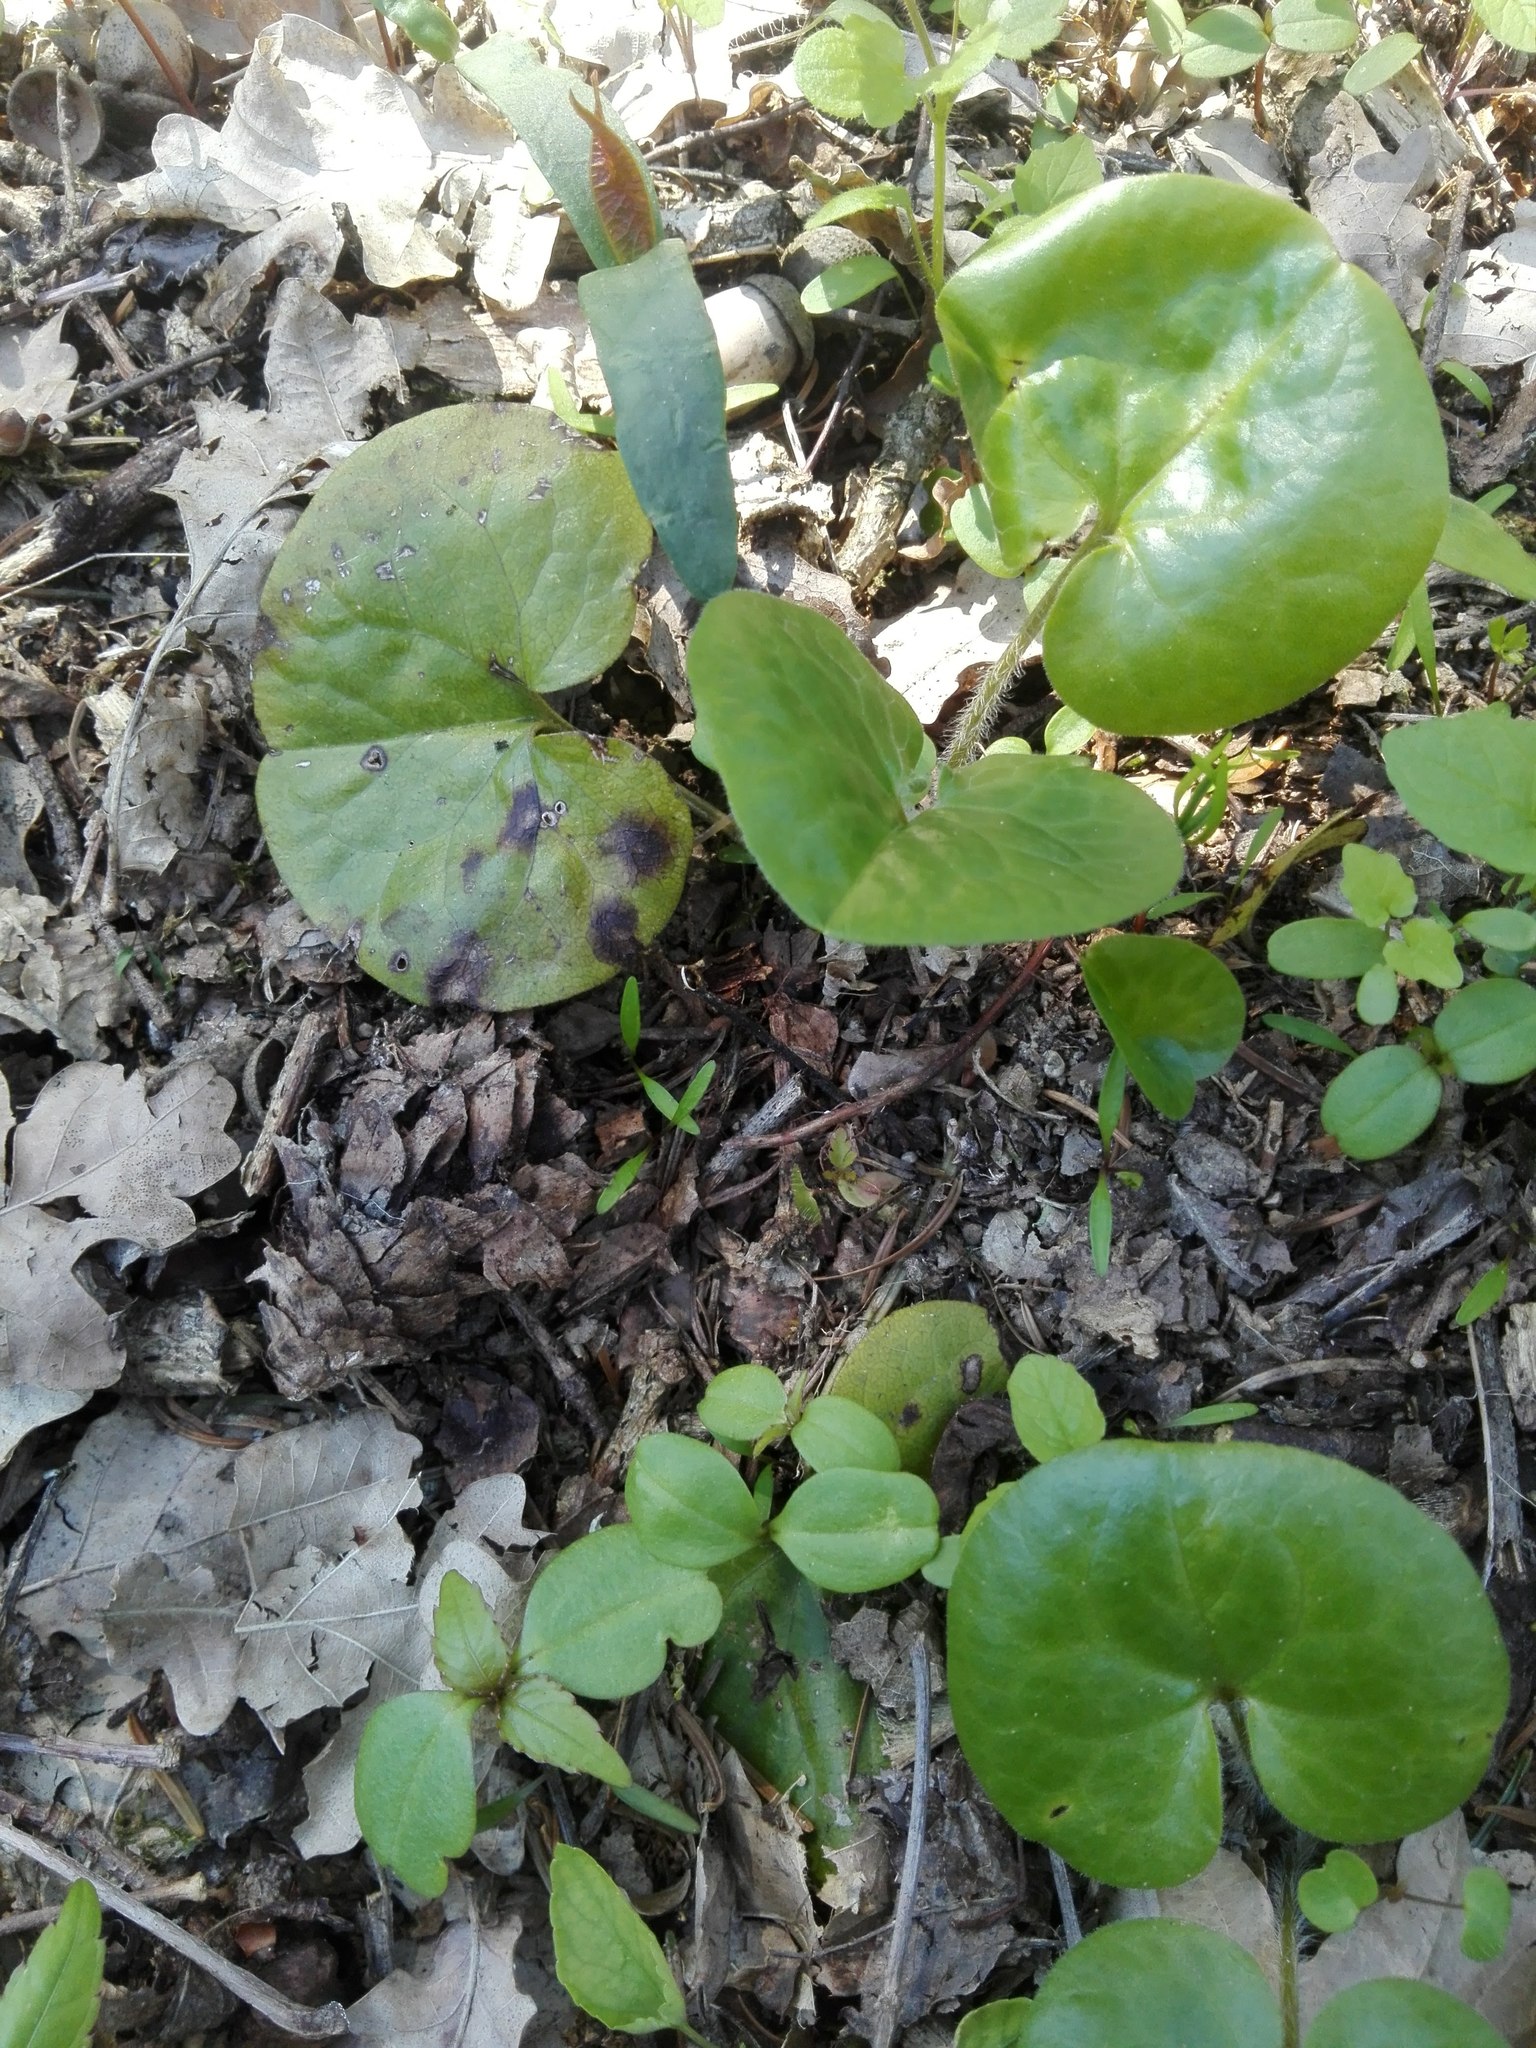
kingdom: Plantae
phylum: Tracheophyta
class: Magnoliopsida
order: Piperales
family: Aristolochiaceae
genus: Asarum
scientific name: Asarum europaeum
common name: Asarabacca
